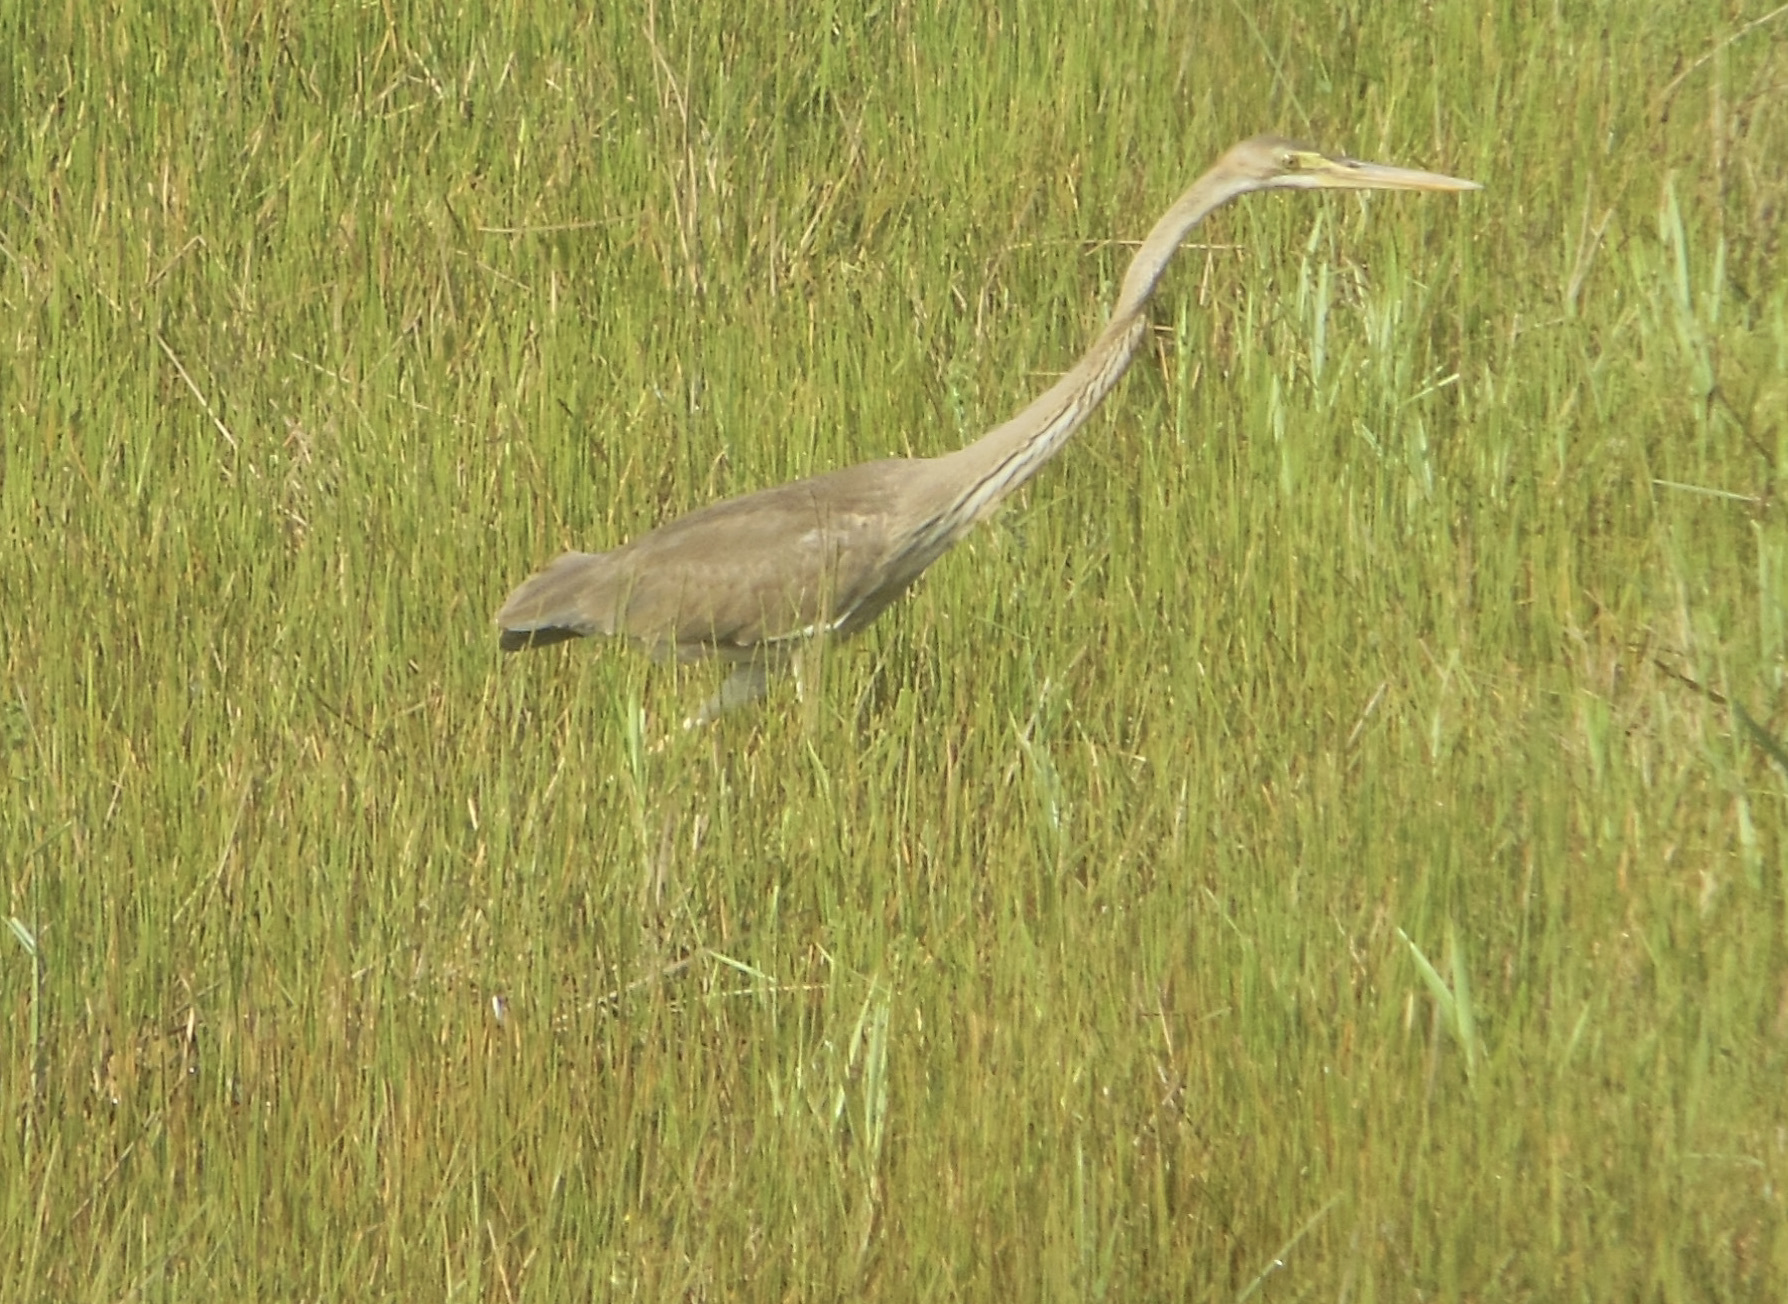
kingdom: Animalia
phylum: Chordata
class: Aves
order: Pelecaniformes
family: Ardeidae
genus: Ardea
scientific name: Ardea purpurea
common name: Purple heron
